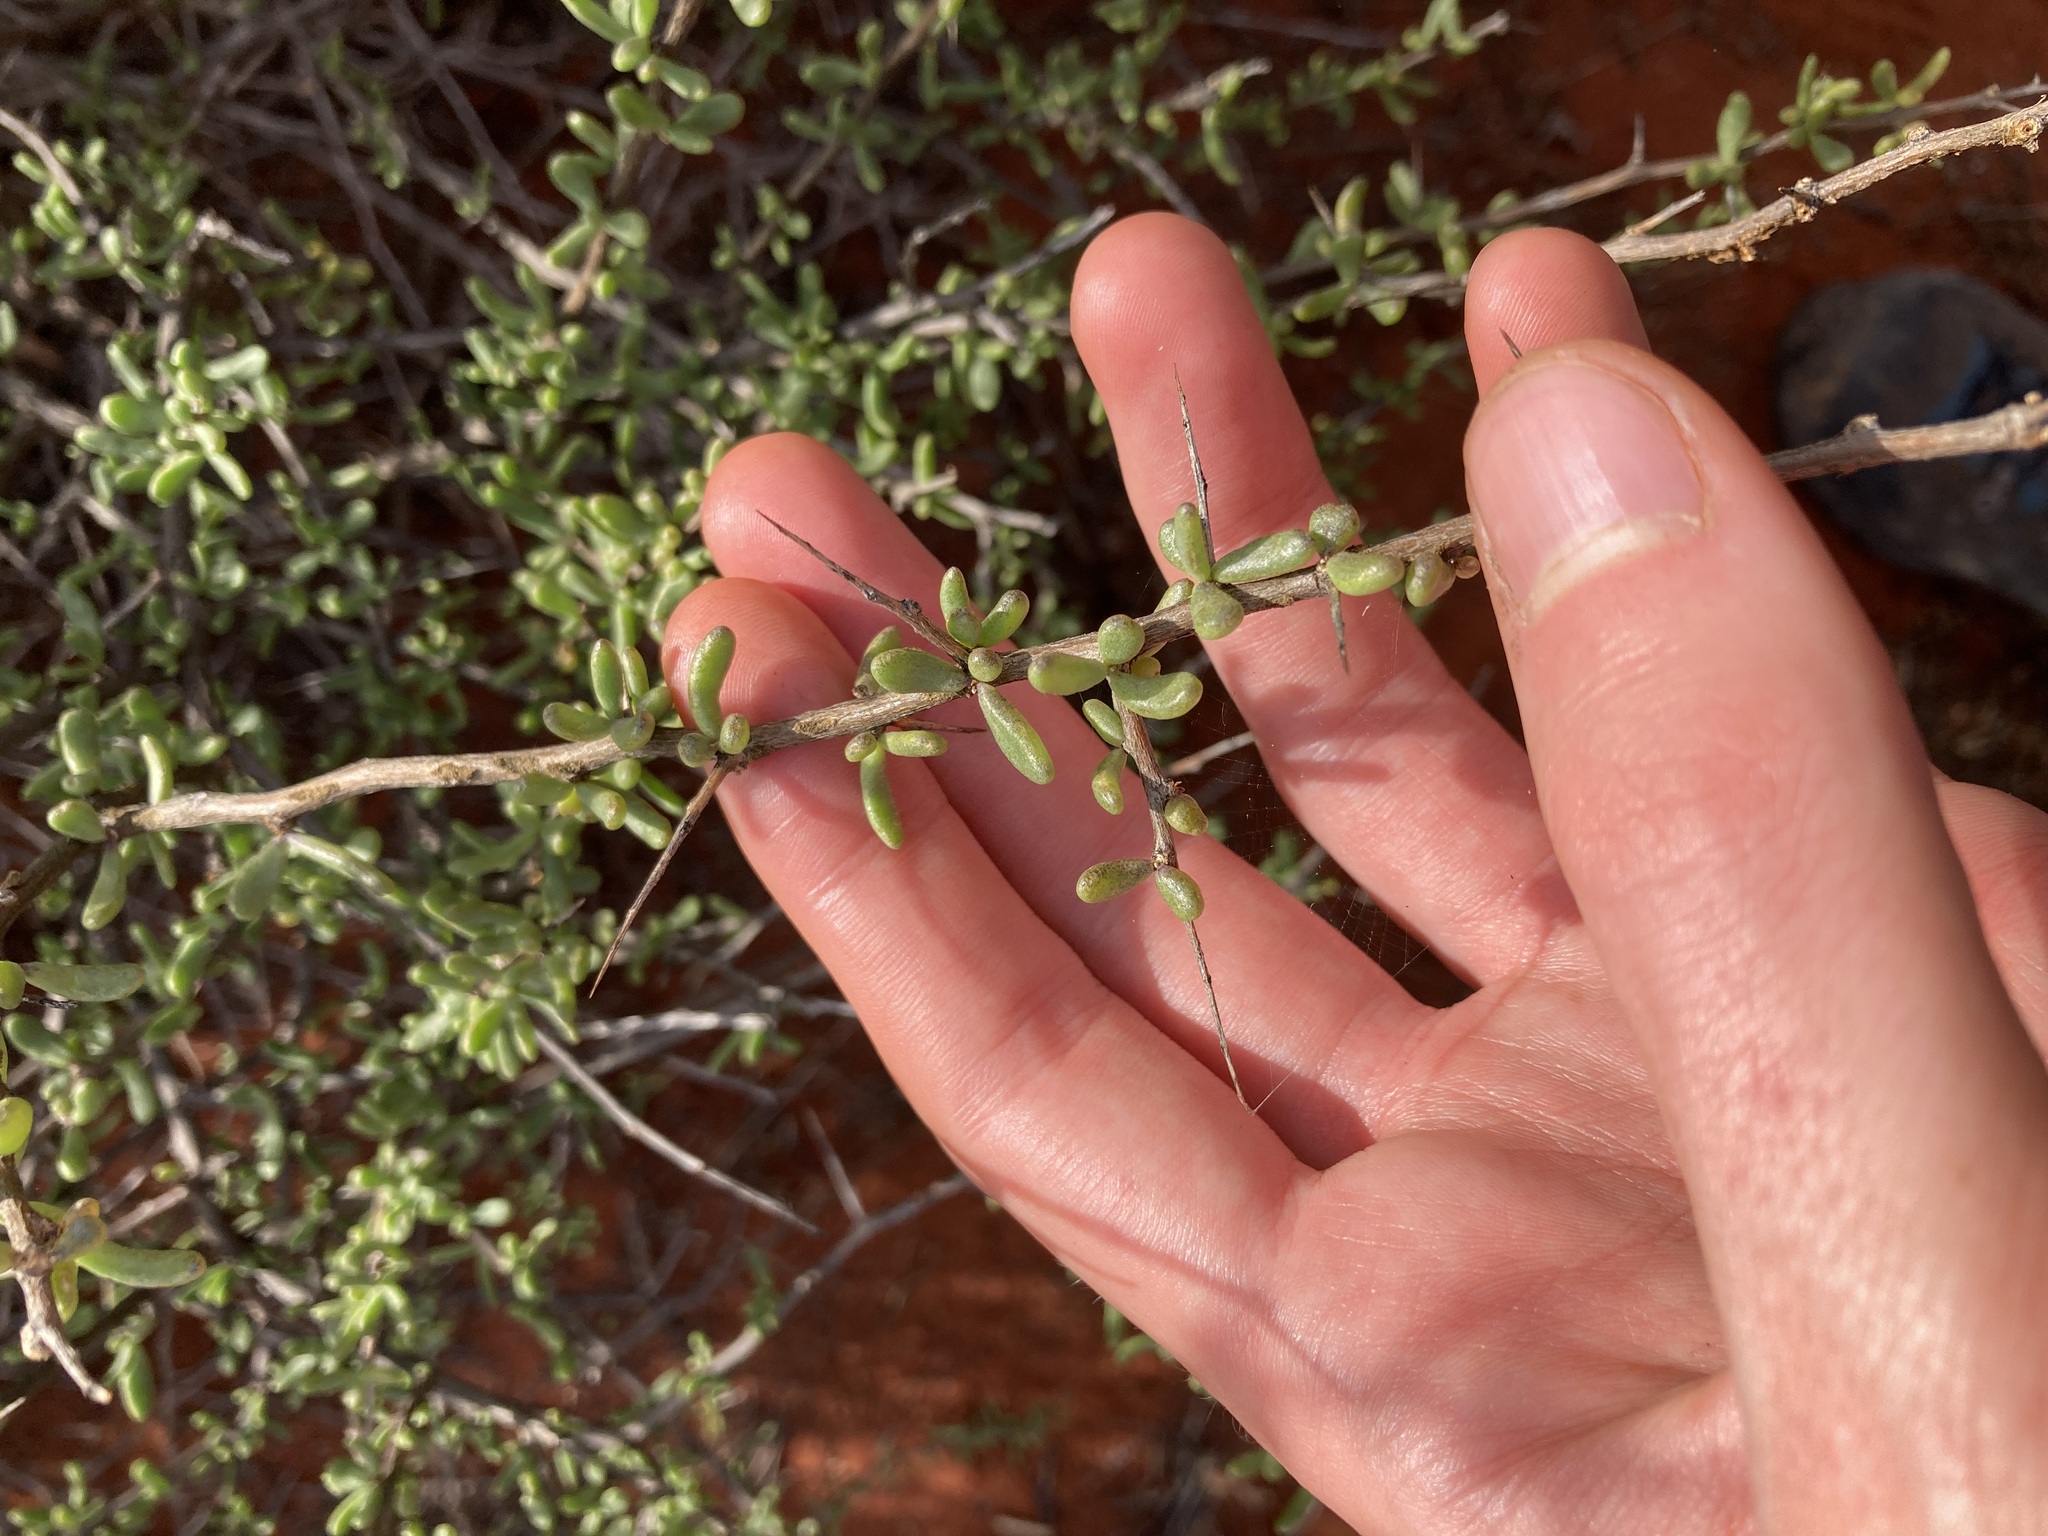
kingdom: Plantae
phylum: Tracheophyta
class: Magnoliopsida
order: Solanales
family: Solanaceae
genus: Lycium
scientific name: Lycium australe
